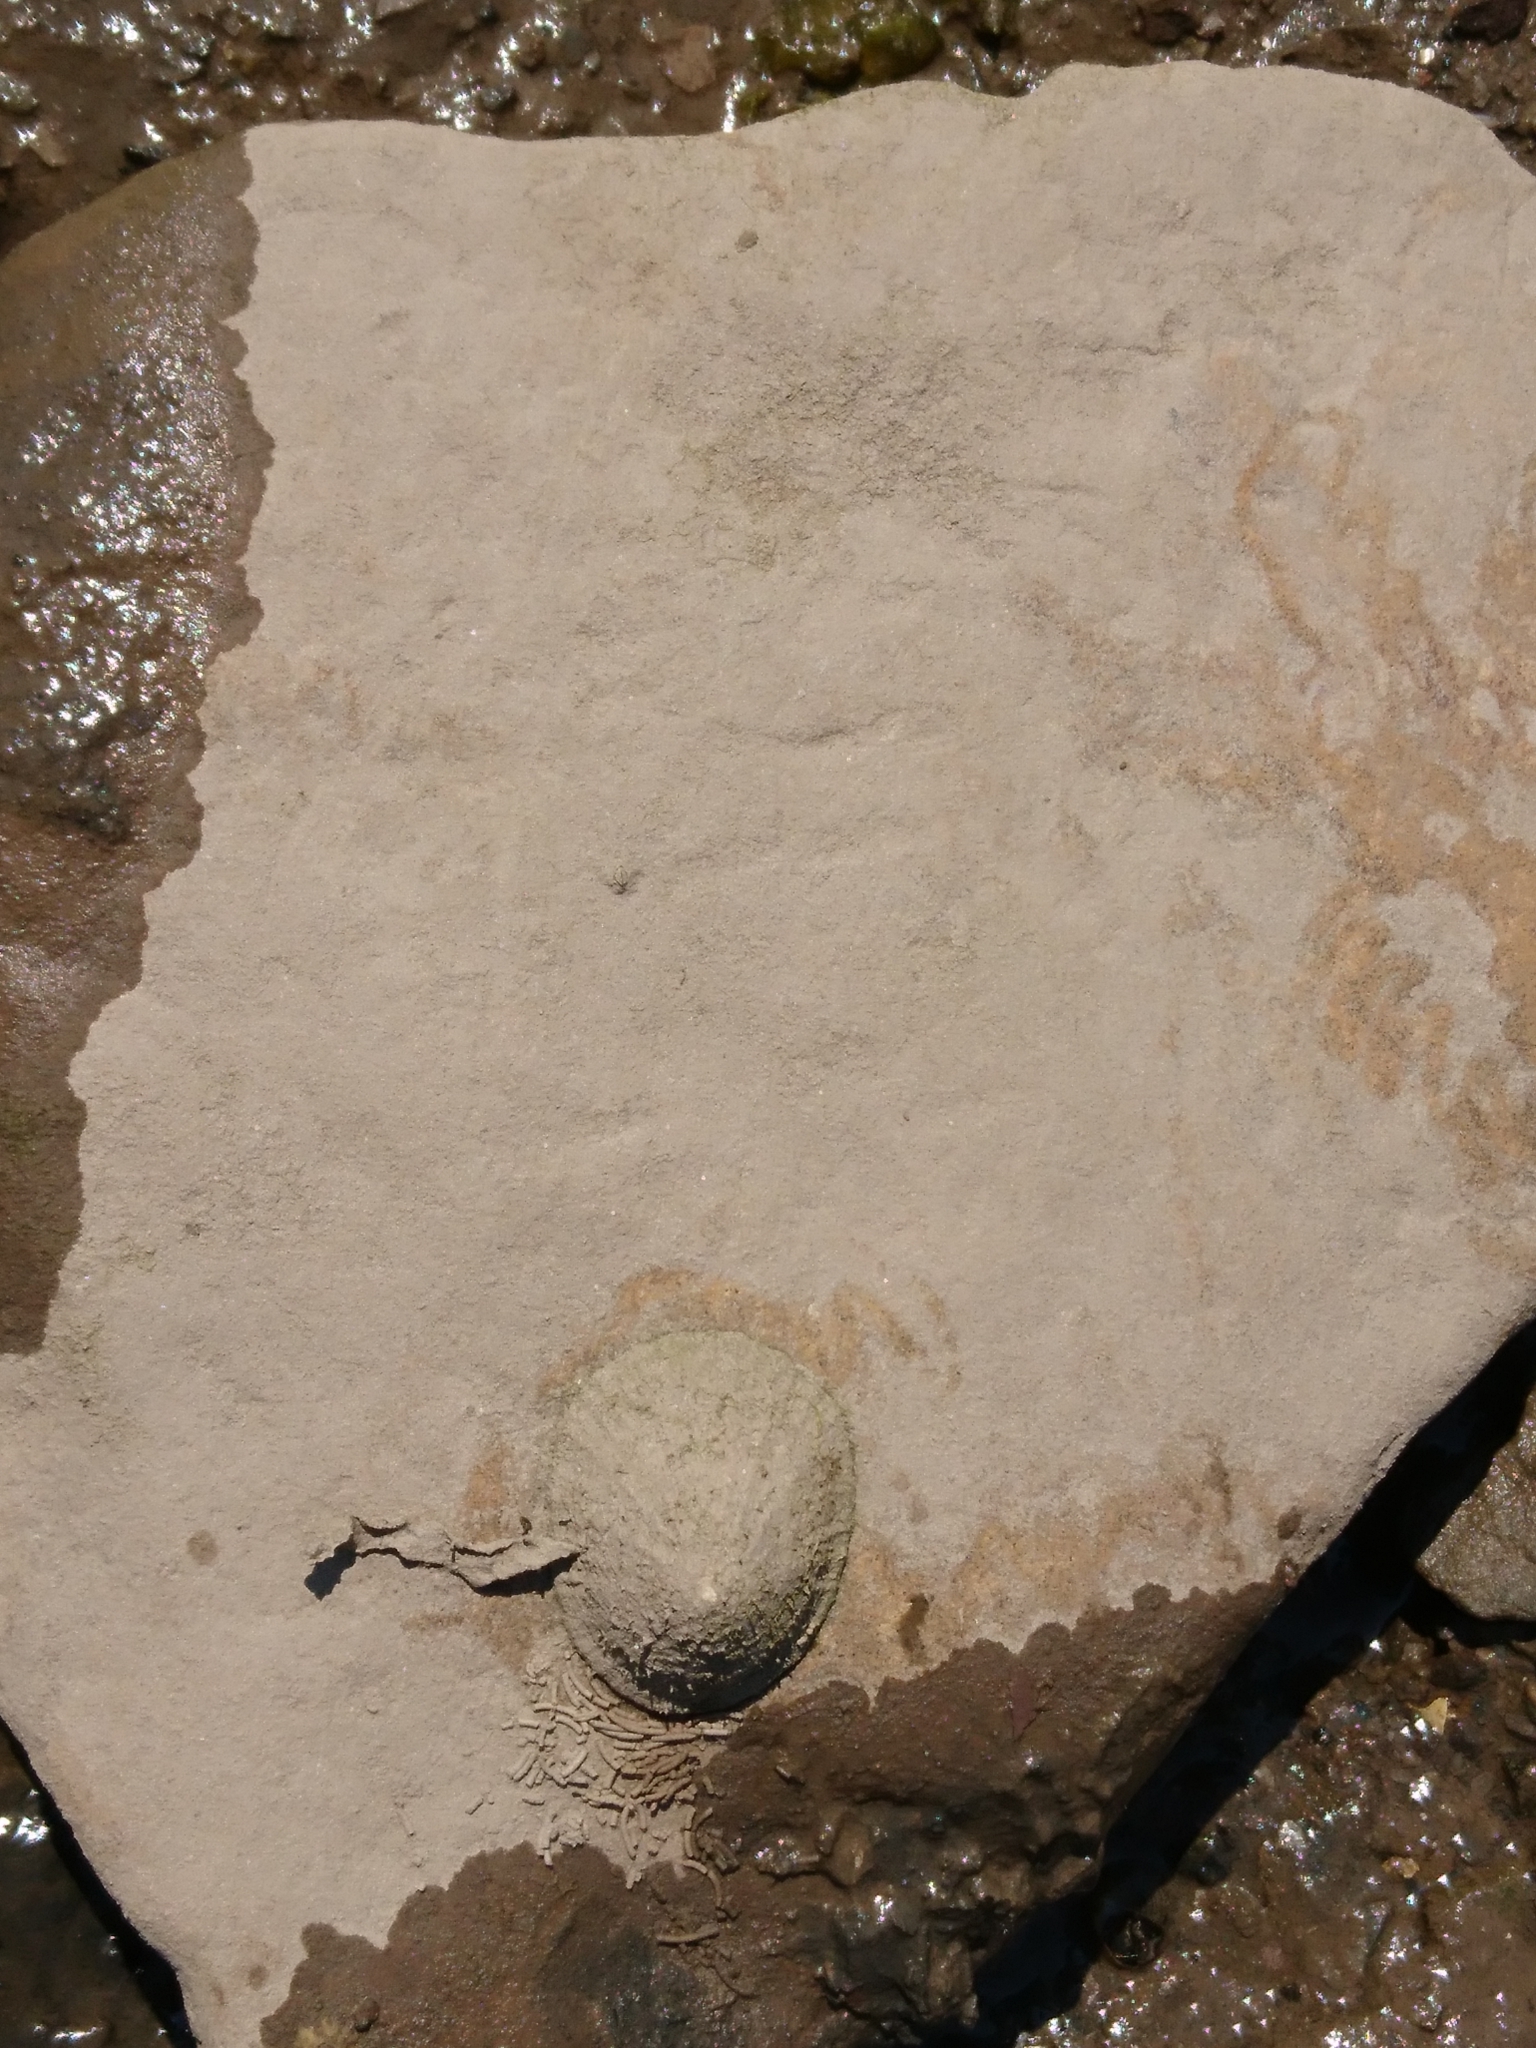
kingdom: Animalia
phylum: Mollusca
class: Gastropoda
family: Patellidae
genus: Patella
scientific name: Patella vulgata
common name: Common limpet
